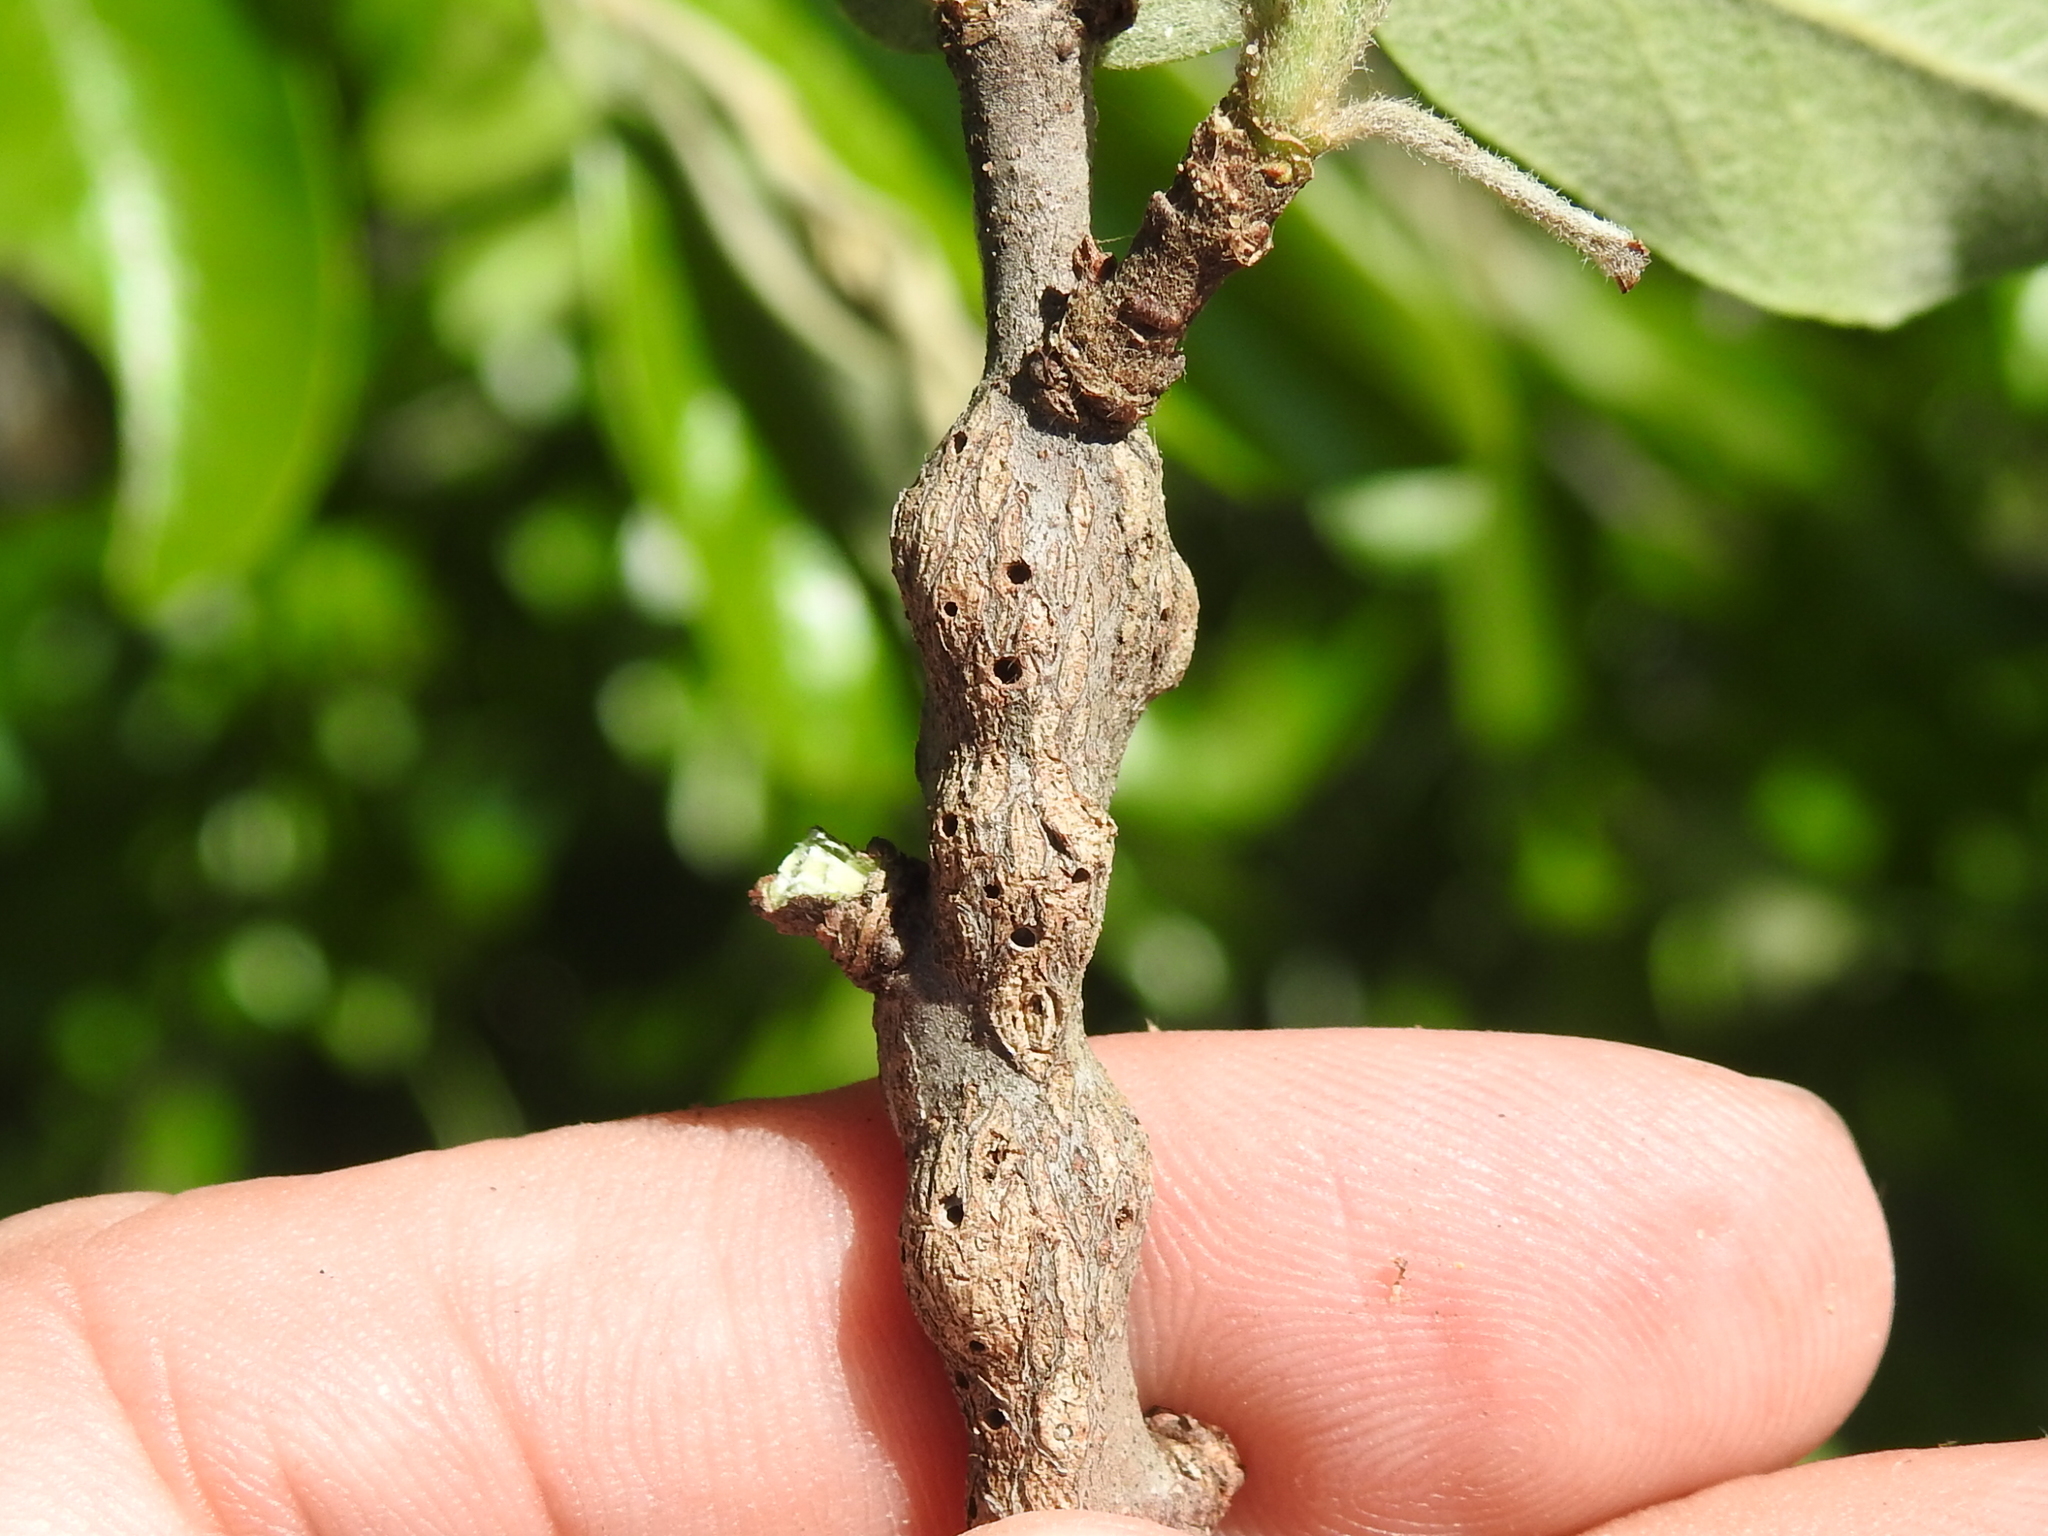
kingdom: Animalia
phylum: Arthropoda
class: Insecta
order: Diptera
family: Cecidomyiidae
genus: Bruggmanniella
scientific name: Bruggmanniella bumeliae
